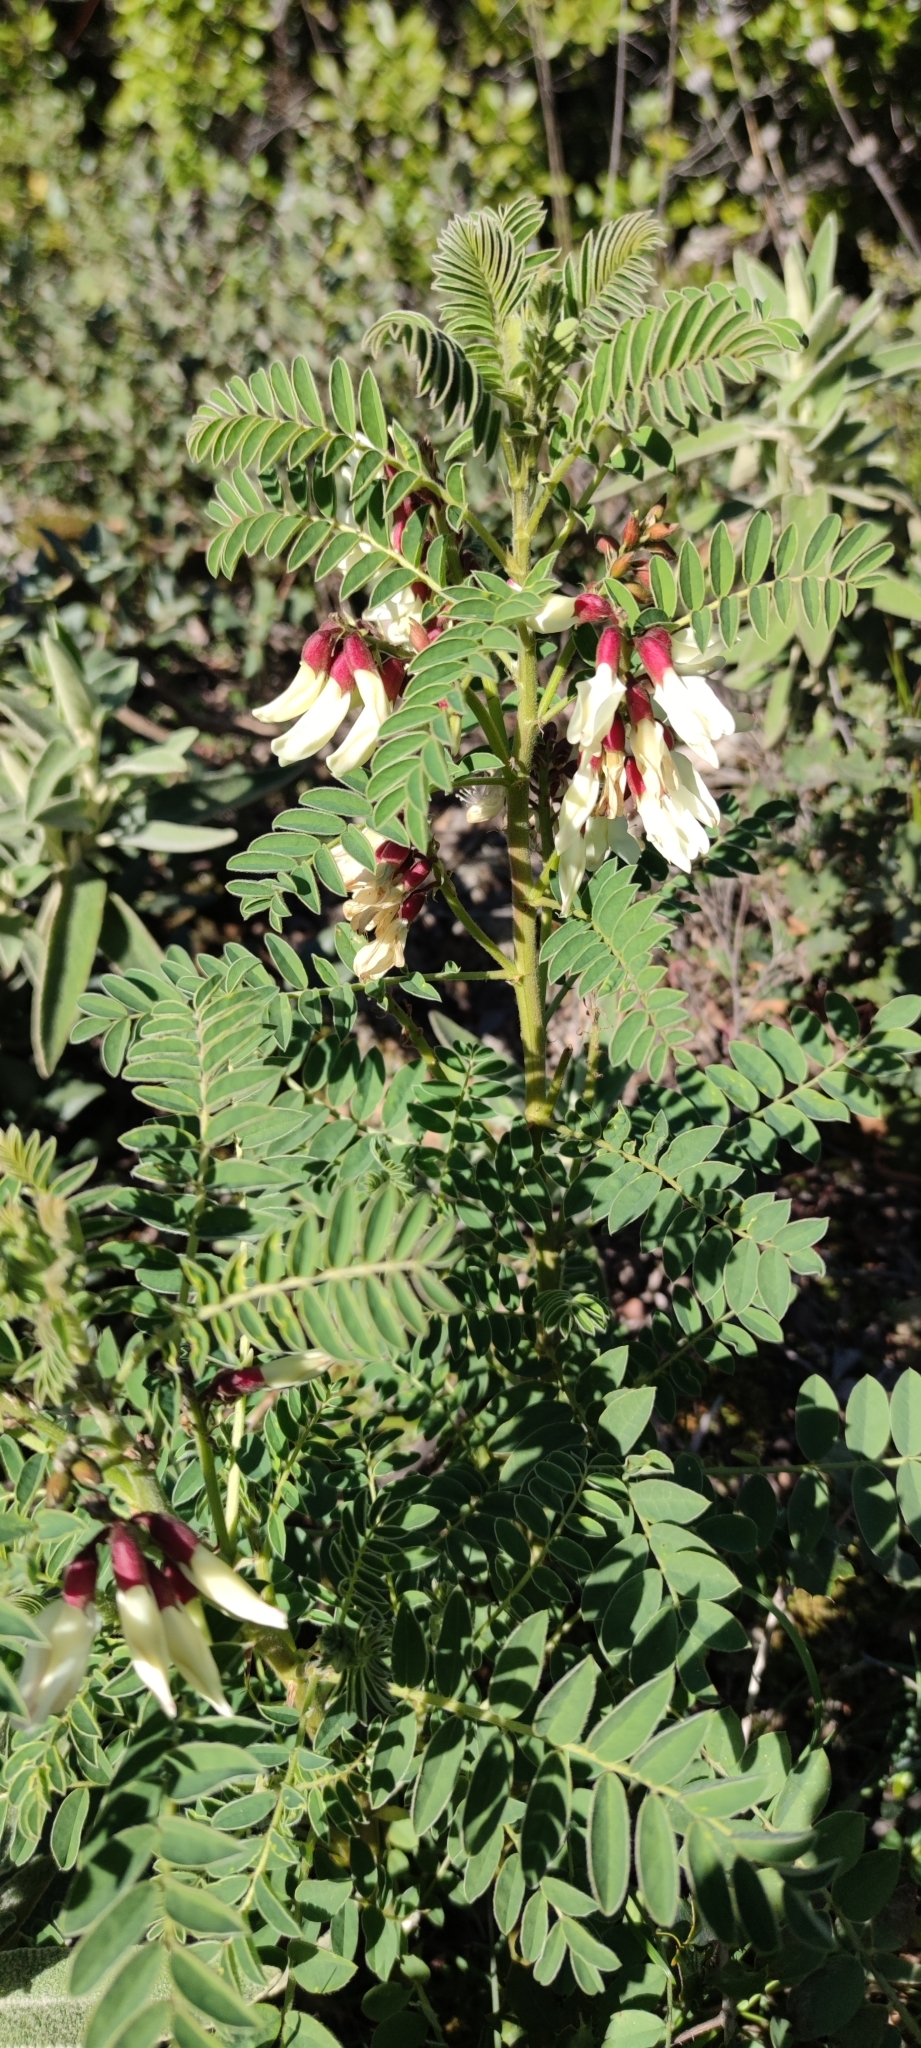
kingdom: Plantae
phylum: Tracheophyta
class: Magnoliopsida
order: Fabales
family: Fabaceae
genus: Erophaca
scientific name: Erophaca baetica
